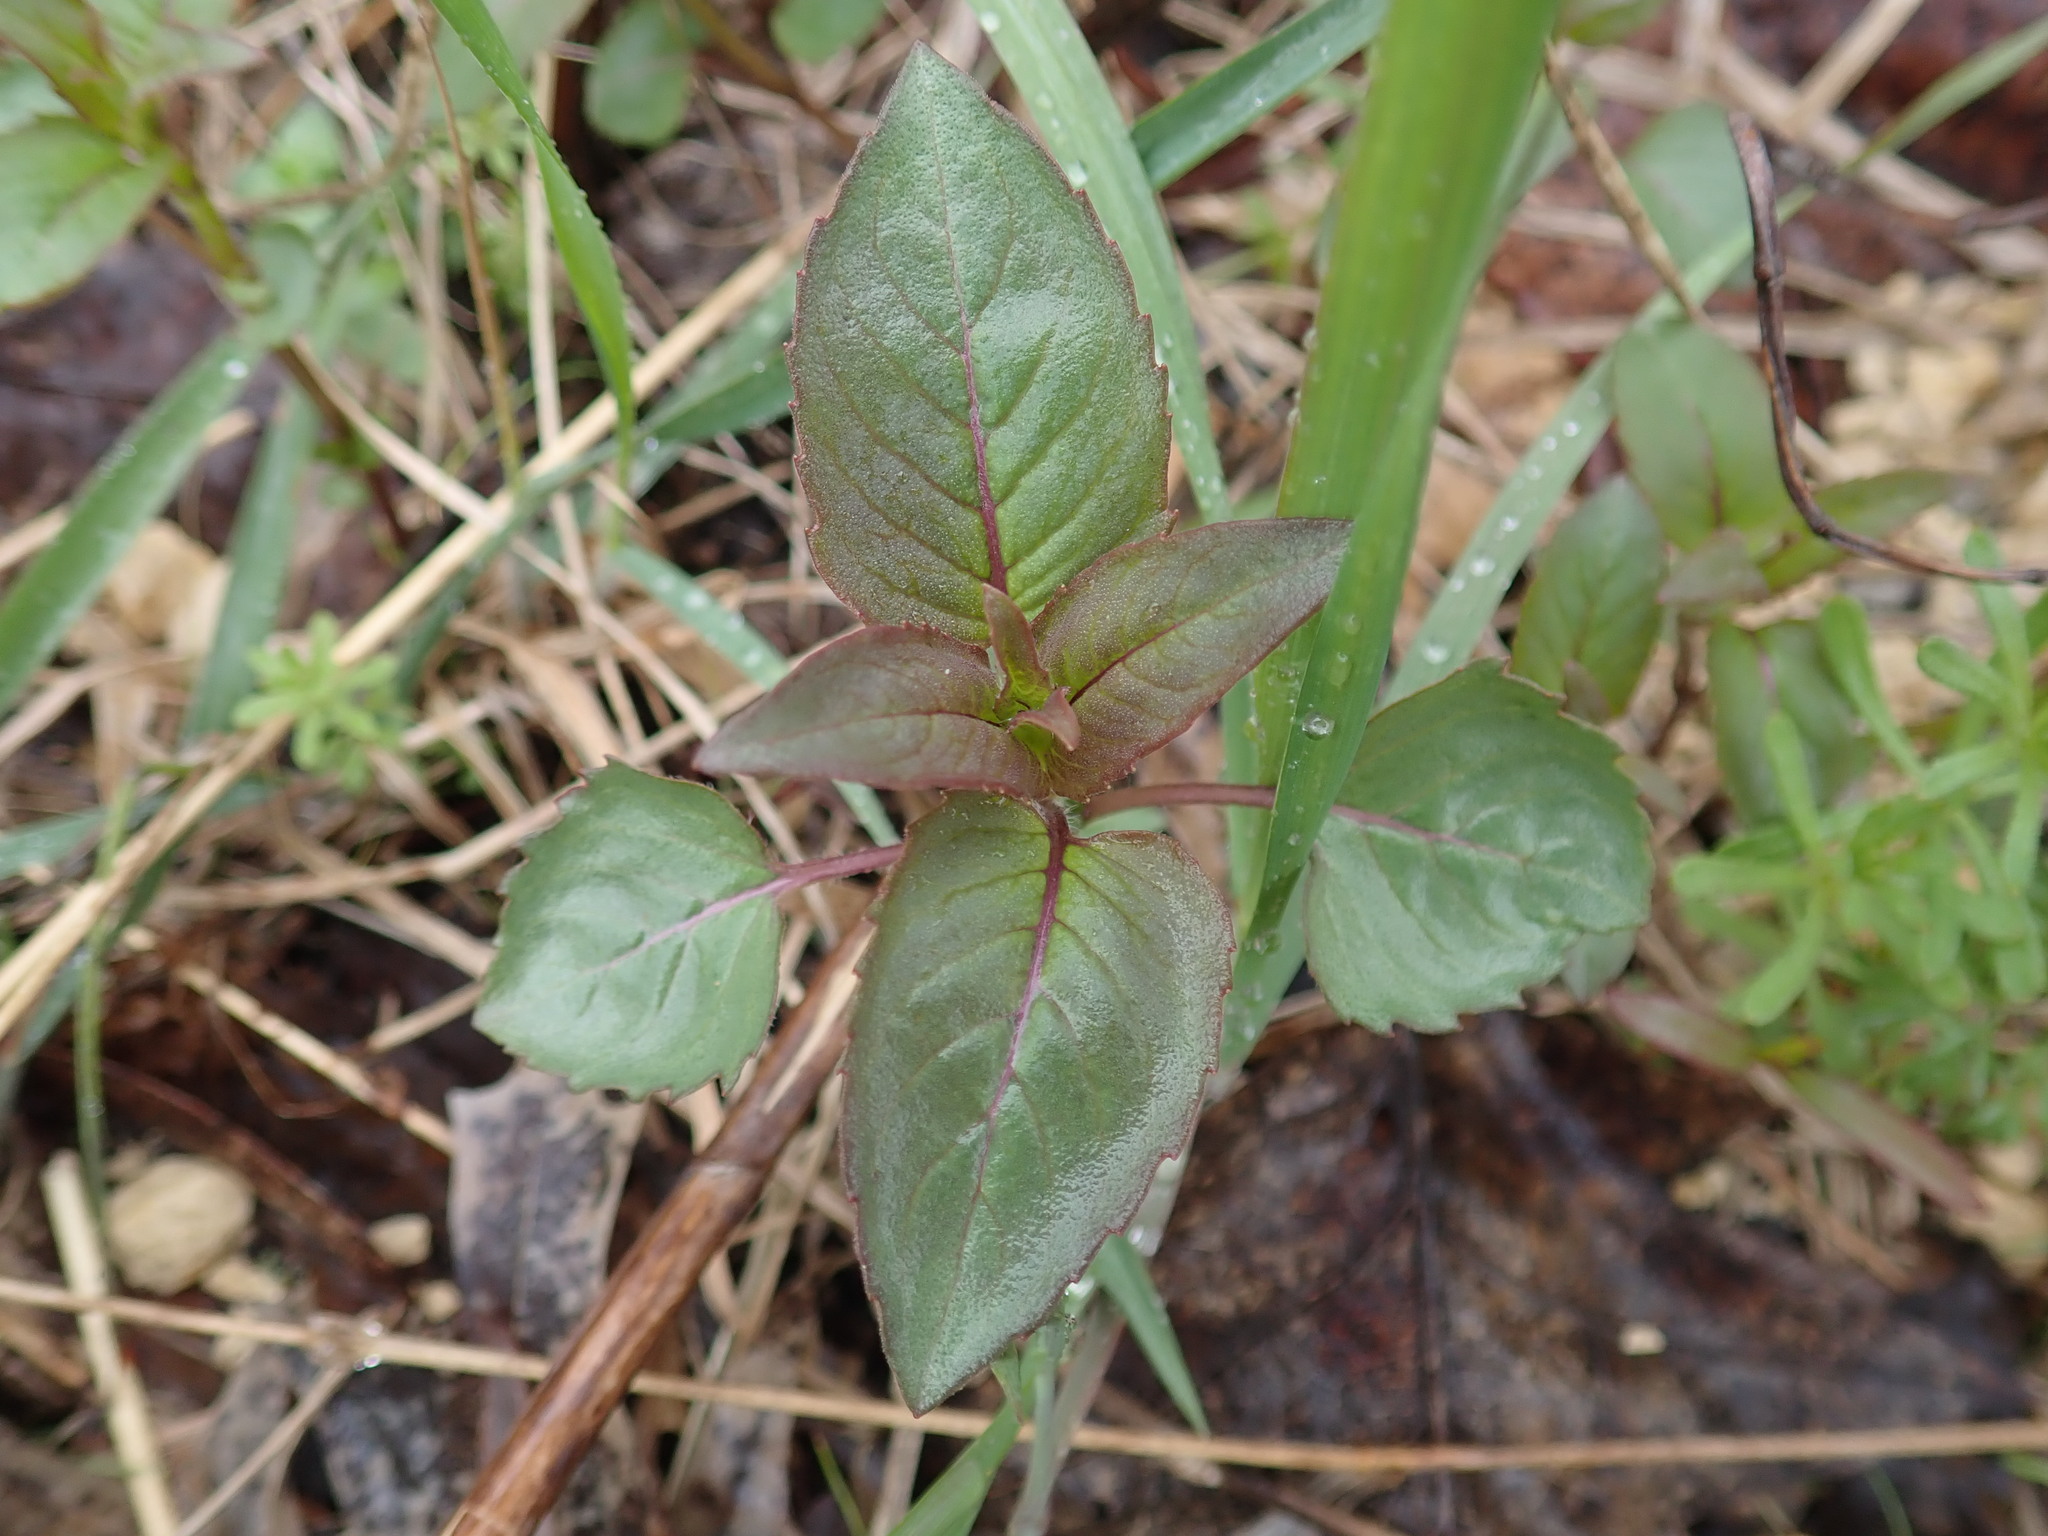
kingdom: Plantae
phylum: Tracheophyta
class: Magnoliopsida
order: Lamiales
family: Lamiaceae
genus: Monarda
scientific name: Monarda fistulosa
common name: Purple beebalm
